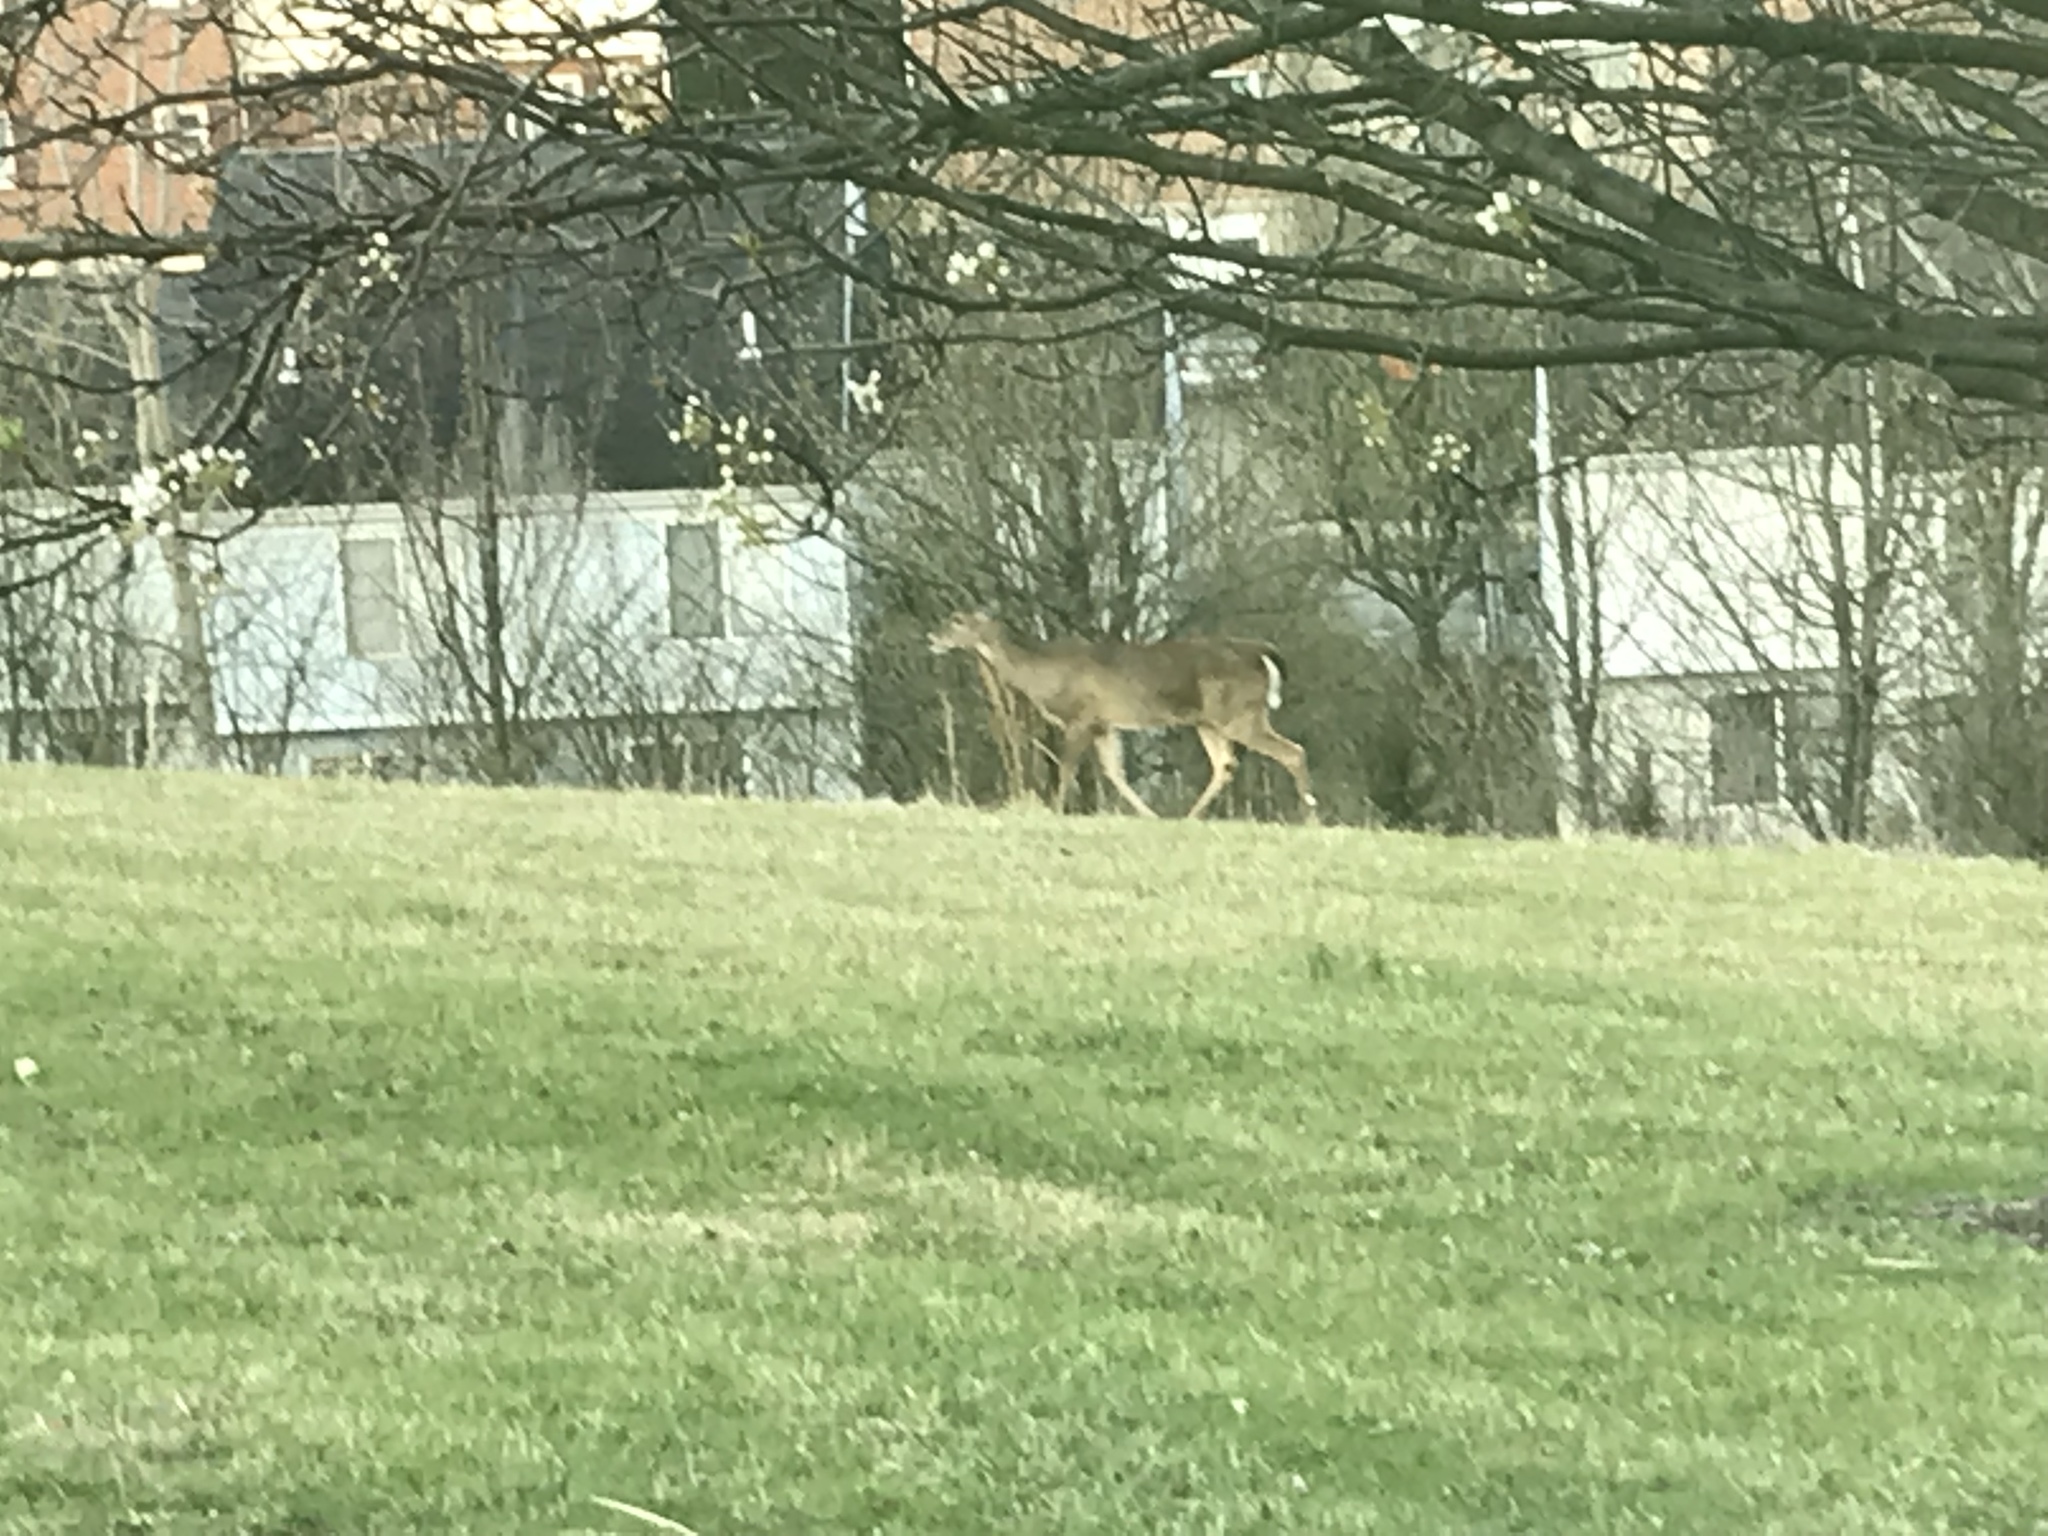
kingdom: Animalia
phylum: Chordata
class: Mammalia
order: Artiodactyla
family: Cervidae
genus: Odocoileus
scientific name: Odocoileus virginianus
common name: White-tailed deer
